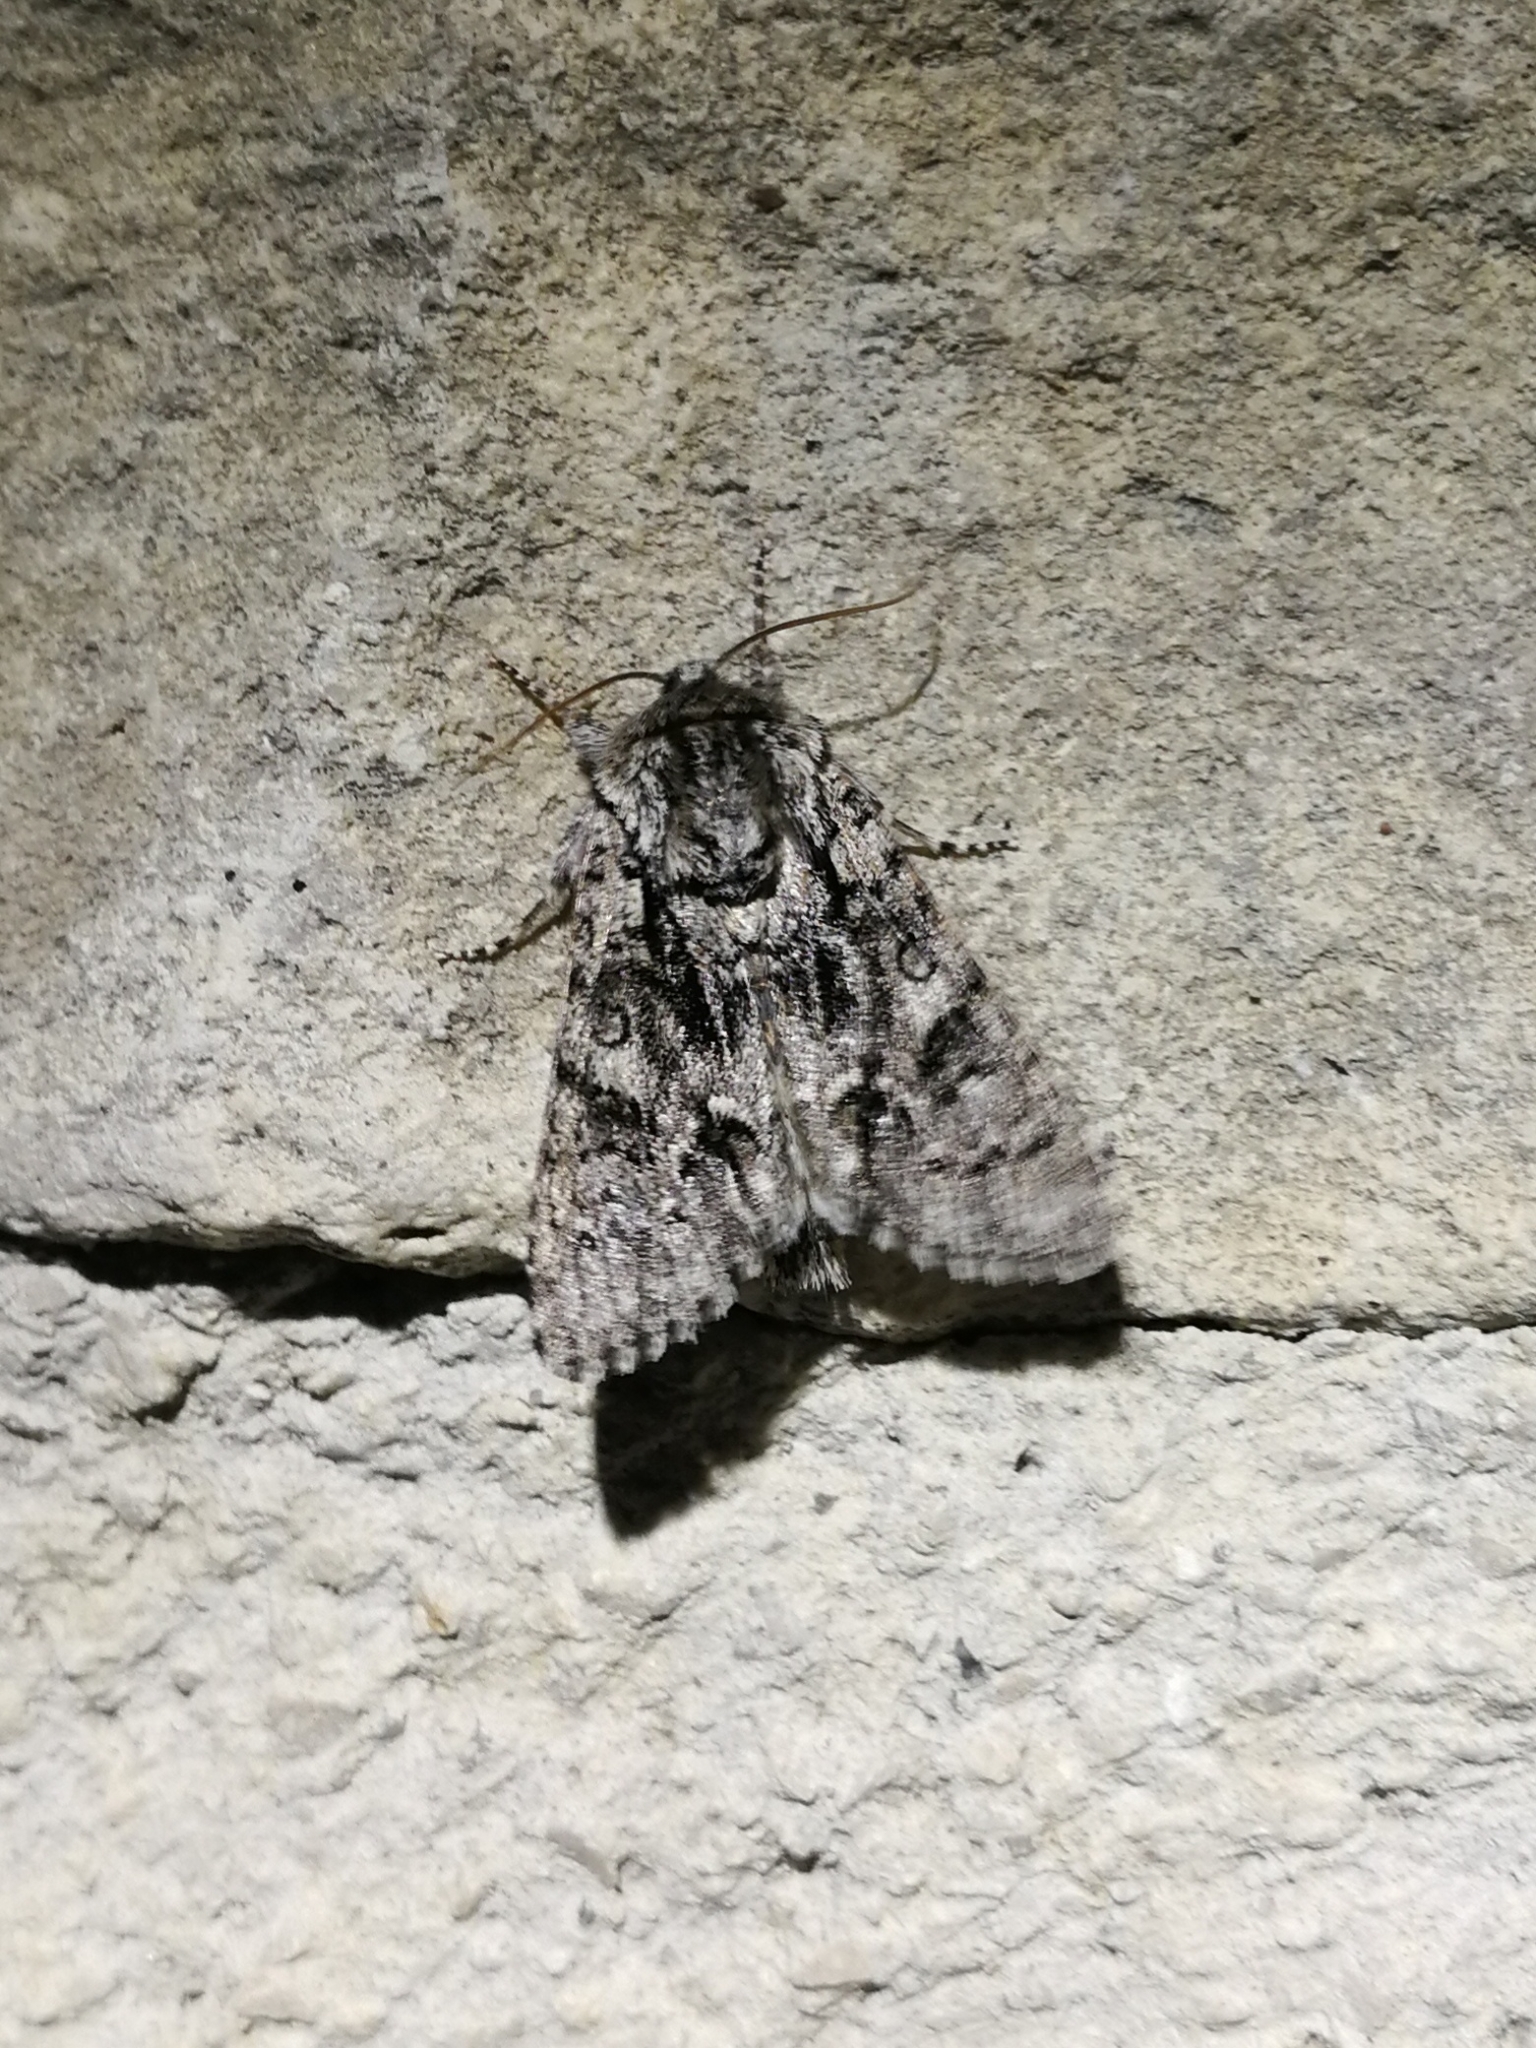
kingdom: Animalia
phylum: Arthropoda
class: Insecta
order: Lepidoptera
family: Noctuidae
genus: Acronicta
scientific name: Acronicta auricoma
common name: Scarce dagger
